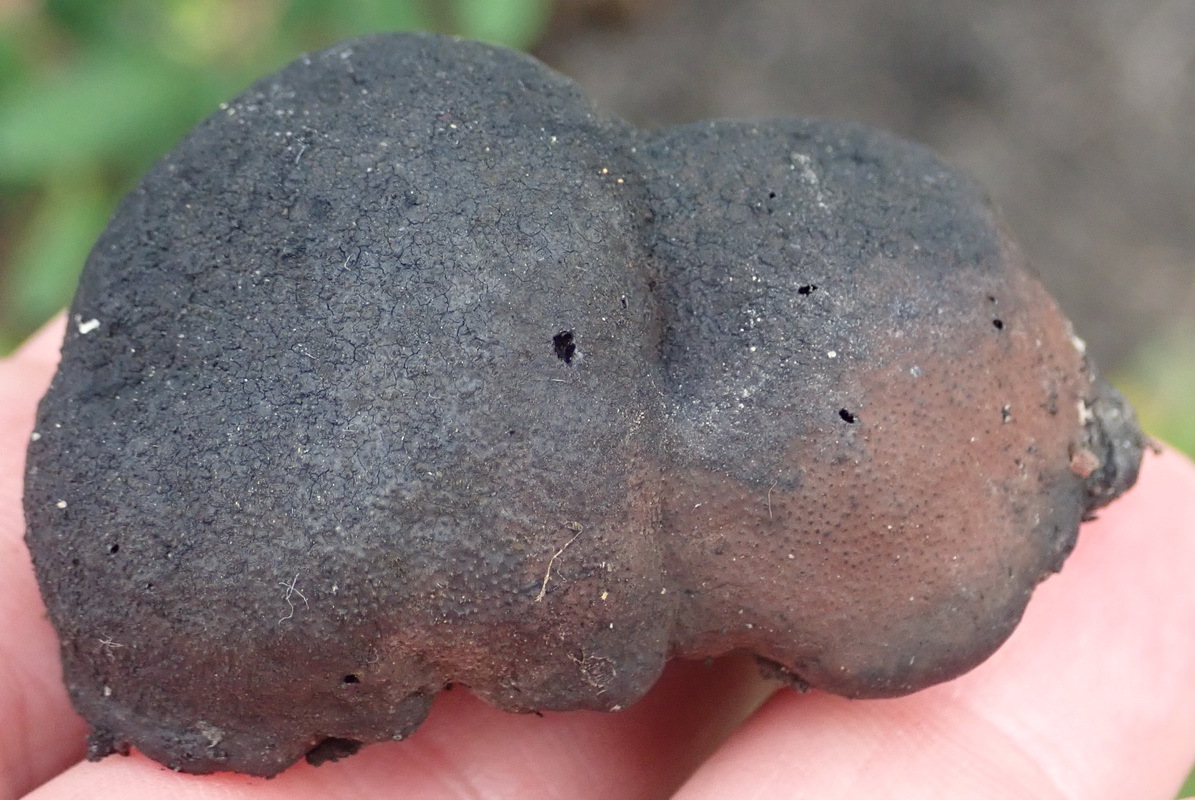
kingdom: Fungi
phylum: Ascomycota
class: Sordariomycetes
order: Xylariales
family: Hypoxylaceae
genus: Daldinia
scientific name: Daldinia concentrica
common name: Cramp balls
